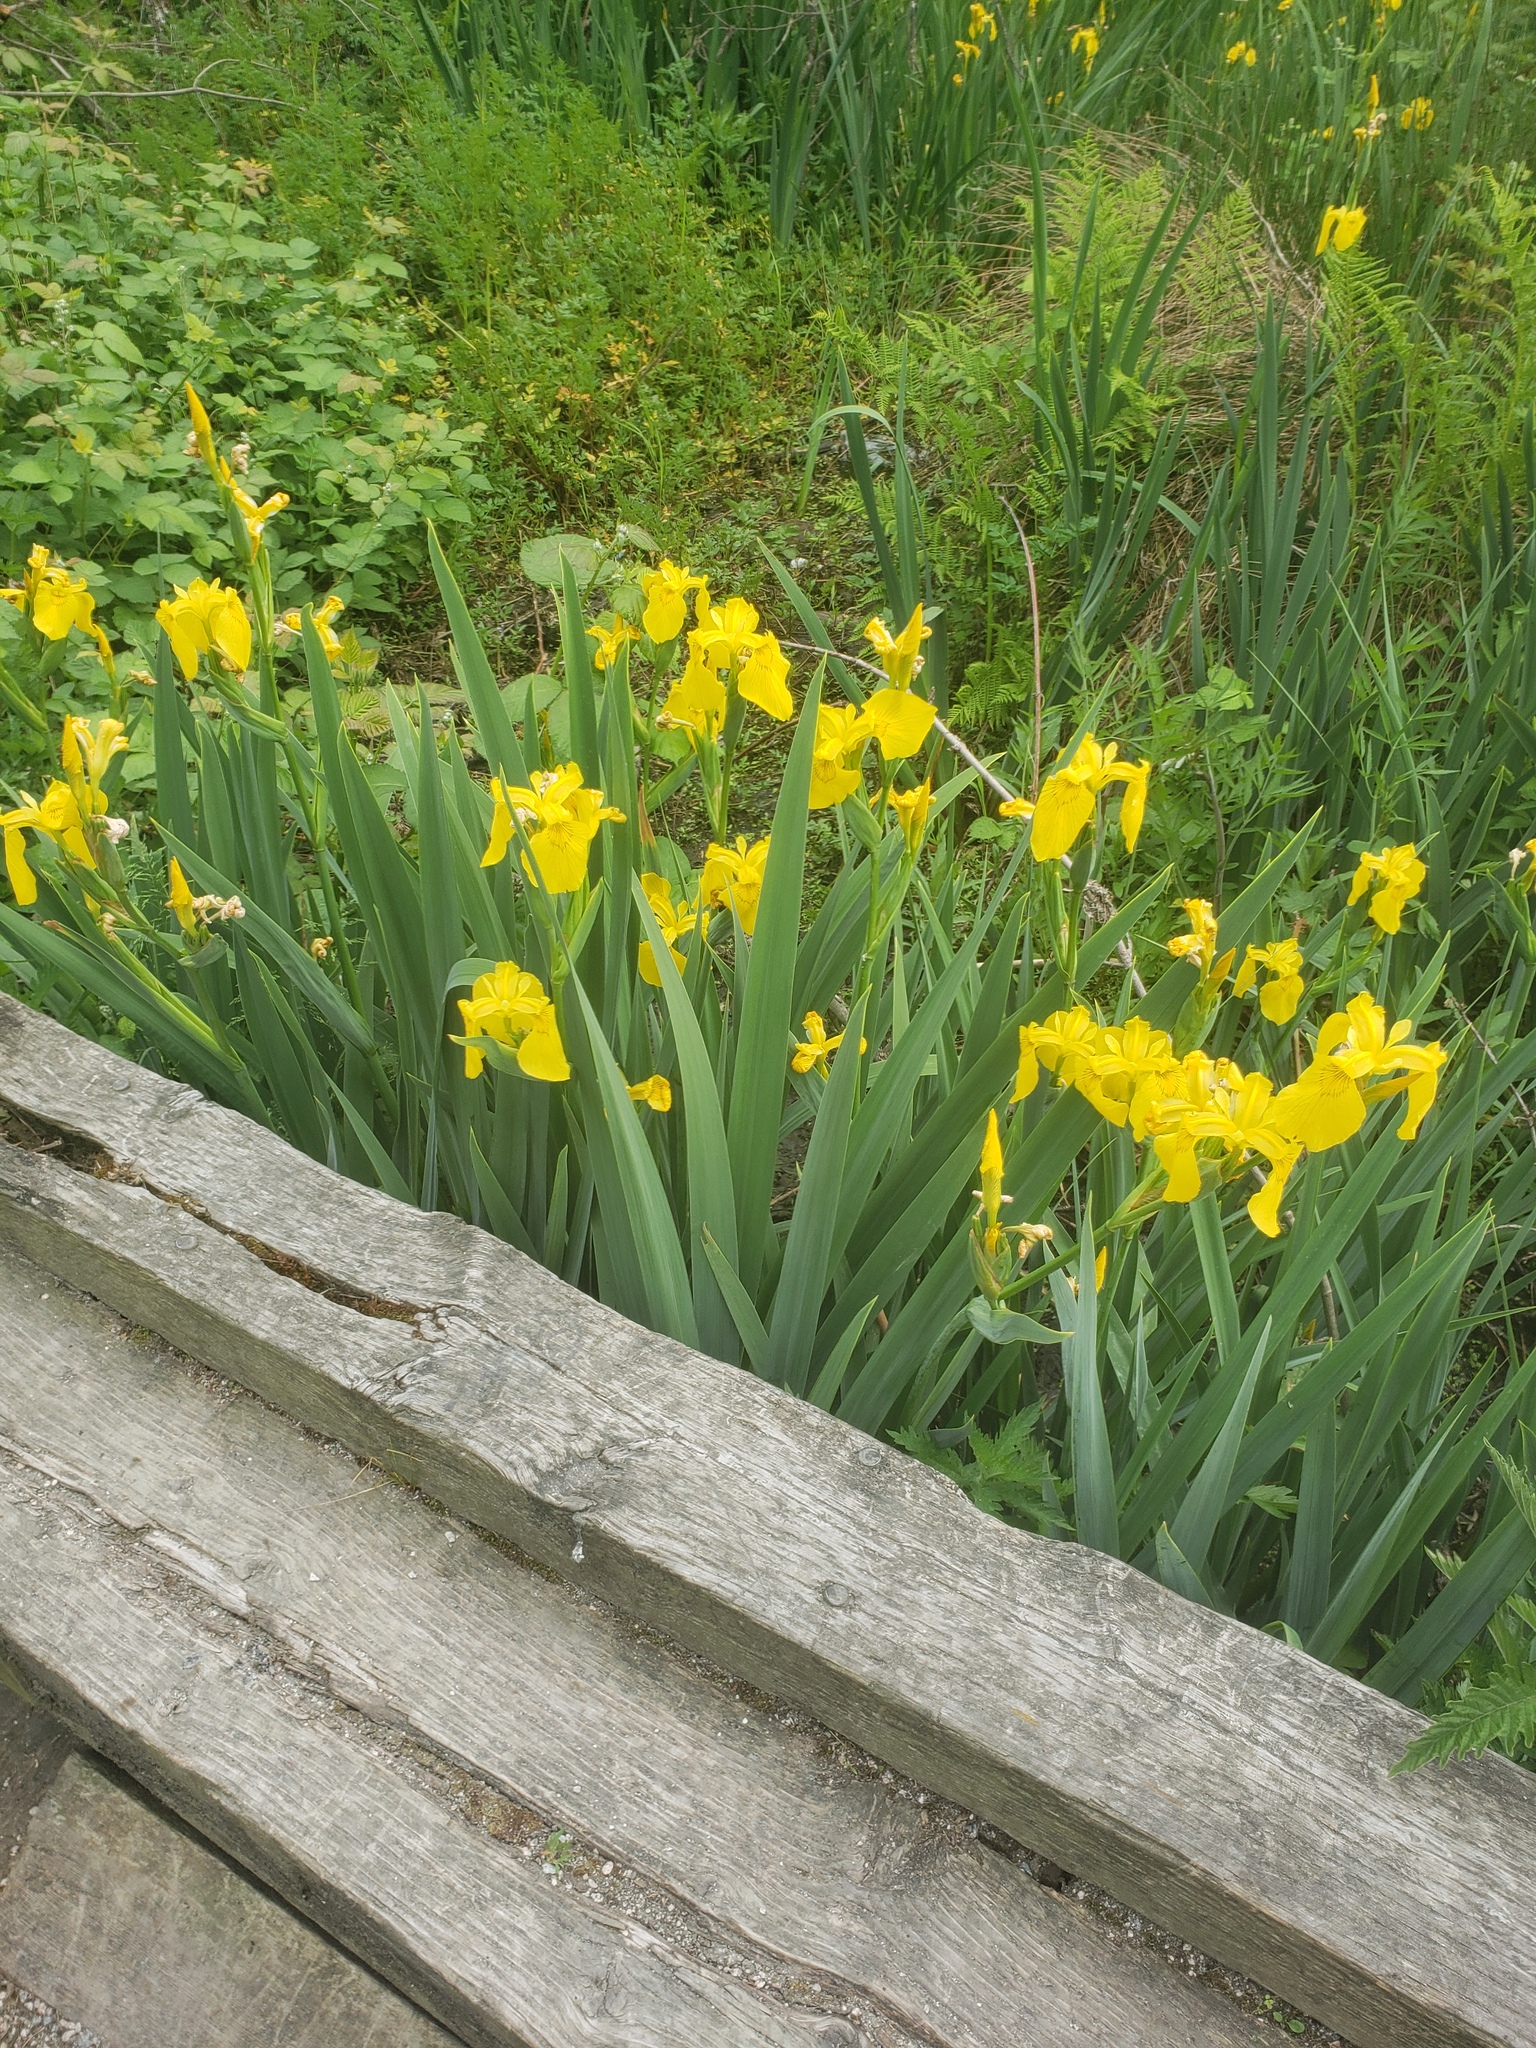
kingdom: Plantae
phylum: Tracheophyta
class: Liliopsida
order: Asparagales
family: Iridaceae
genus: Iris
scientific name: Iris pseudacorus
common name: Yellow flag
